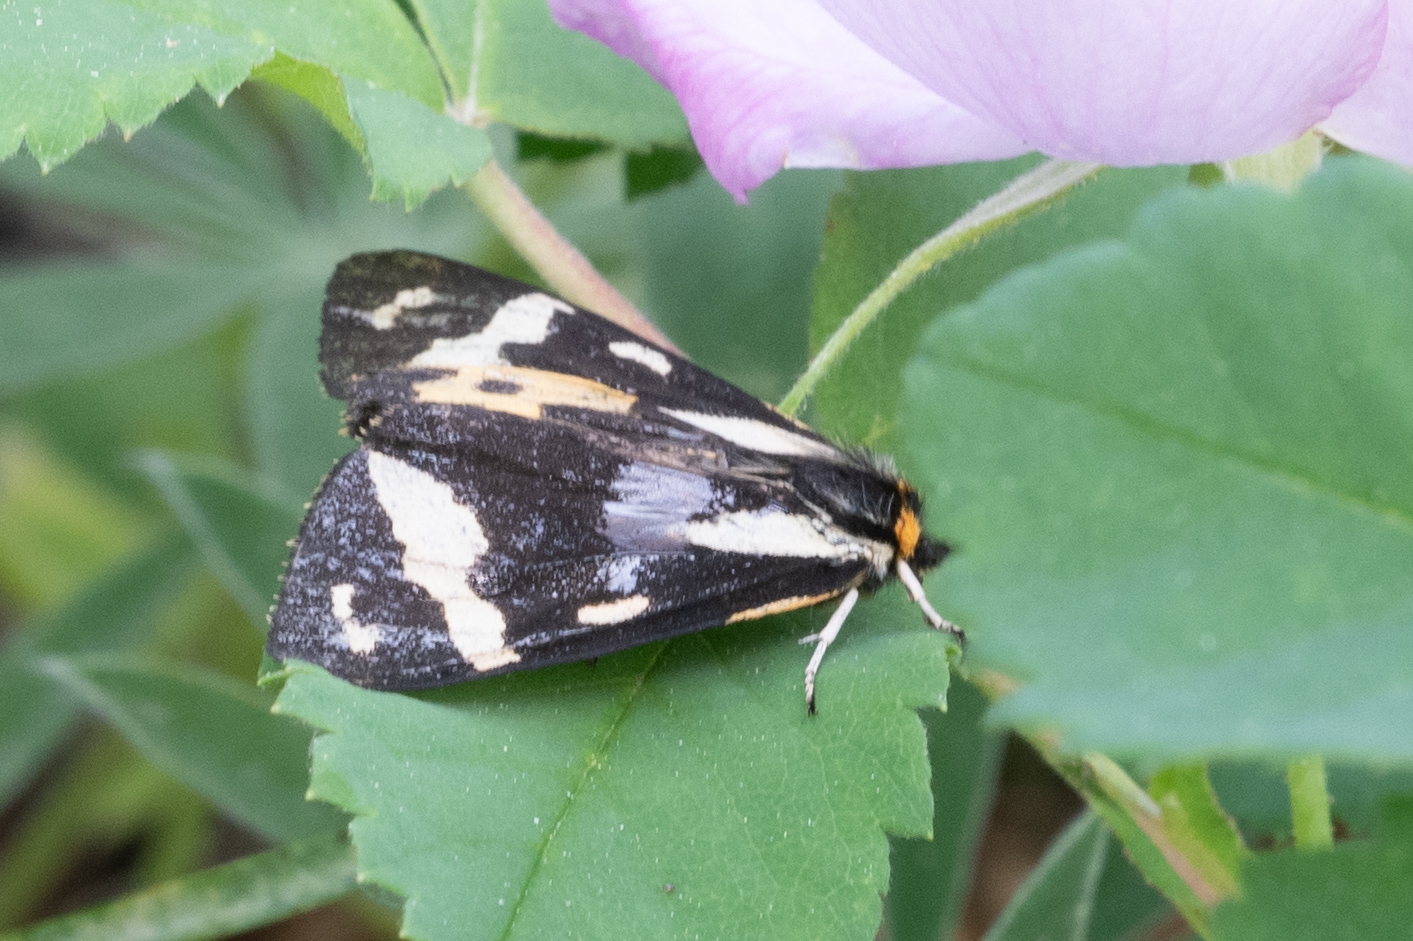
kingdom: Animalia
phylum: Arthropoda
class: Insecta
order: Lepidoptera
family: Erebidae
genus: Parasemia
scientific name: Parasemia plantaginis
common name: Wood tiger
